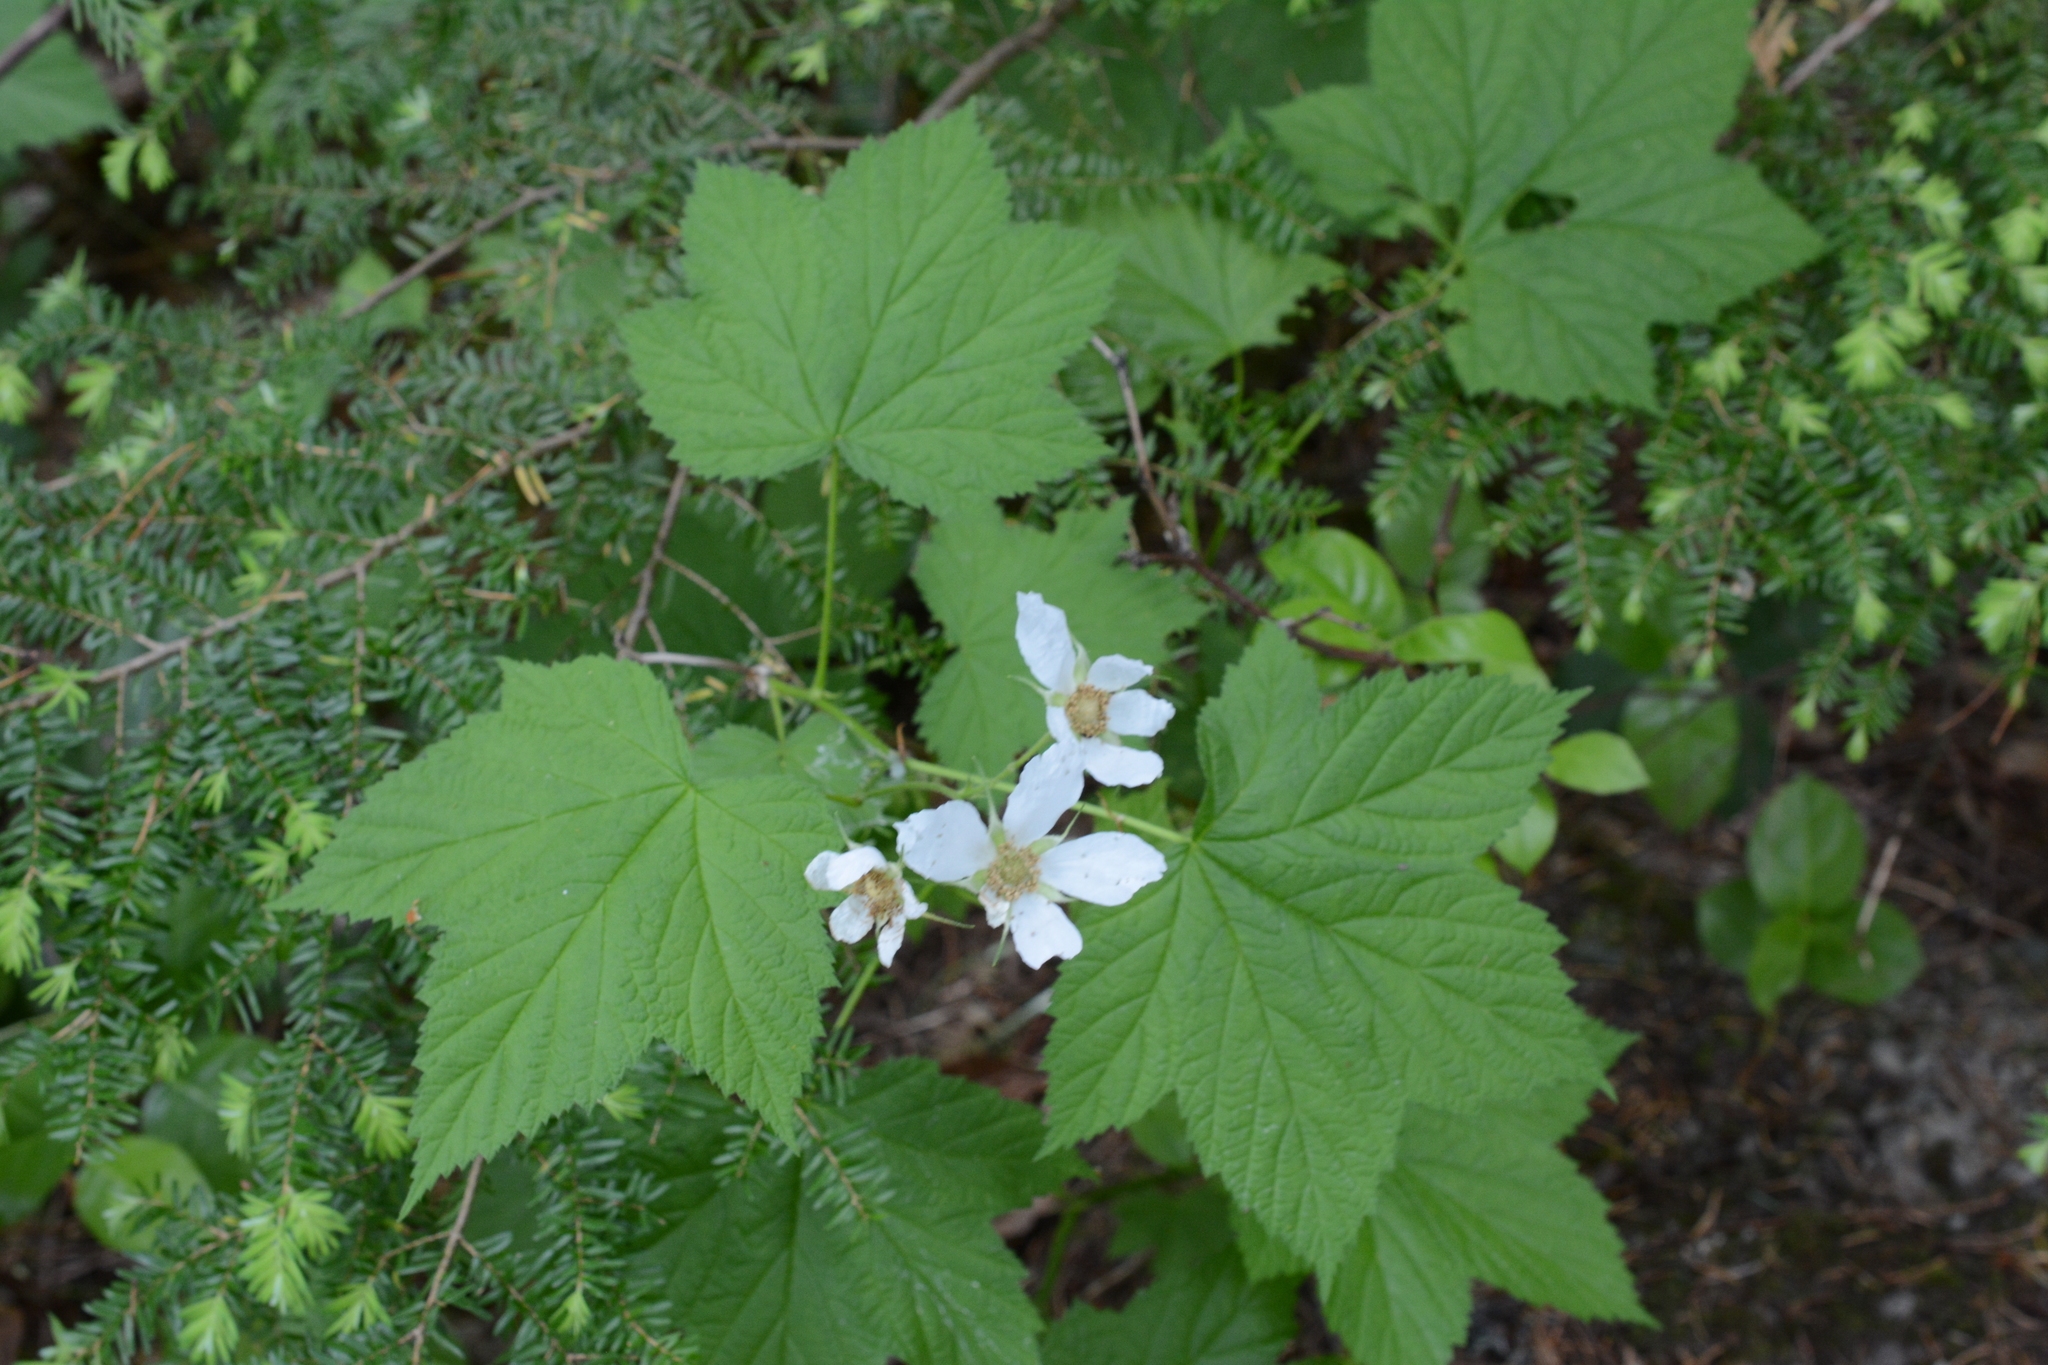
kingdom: Plantae
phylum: Tracheophyta
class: Magnoliopsida
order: Rosales
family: Rosaceae
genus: Rubus
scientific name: Rubus parviflorus
